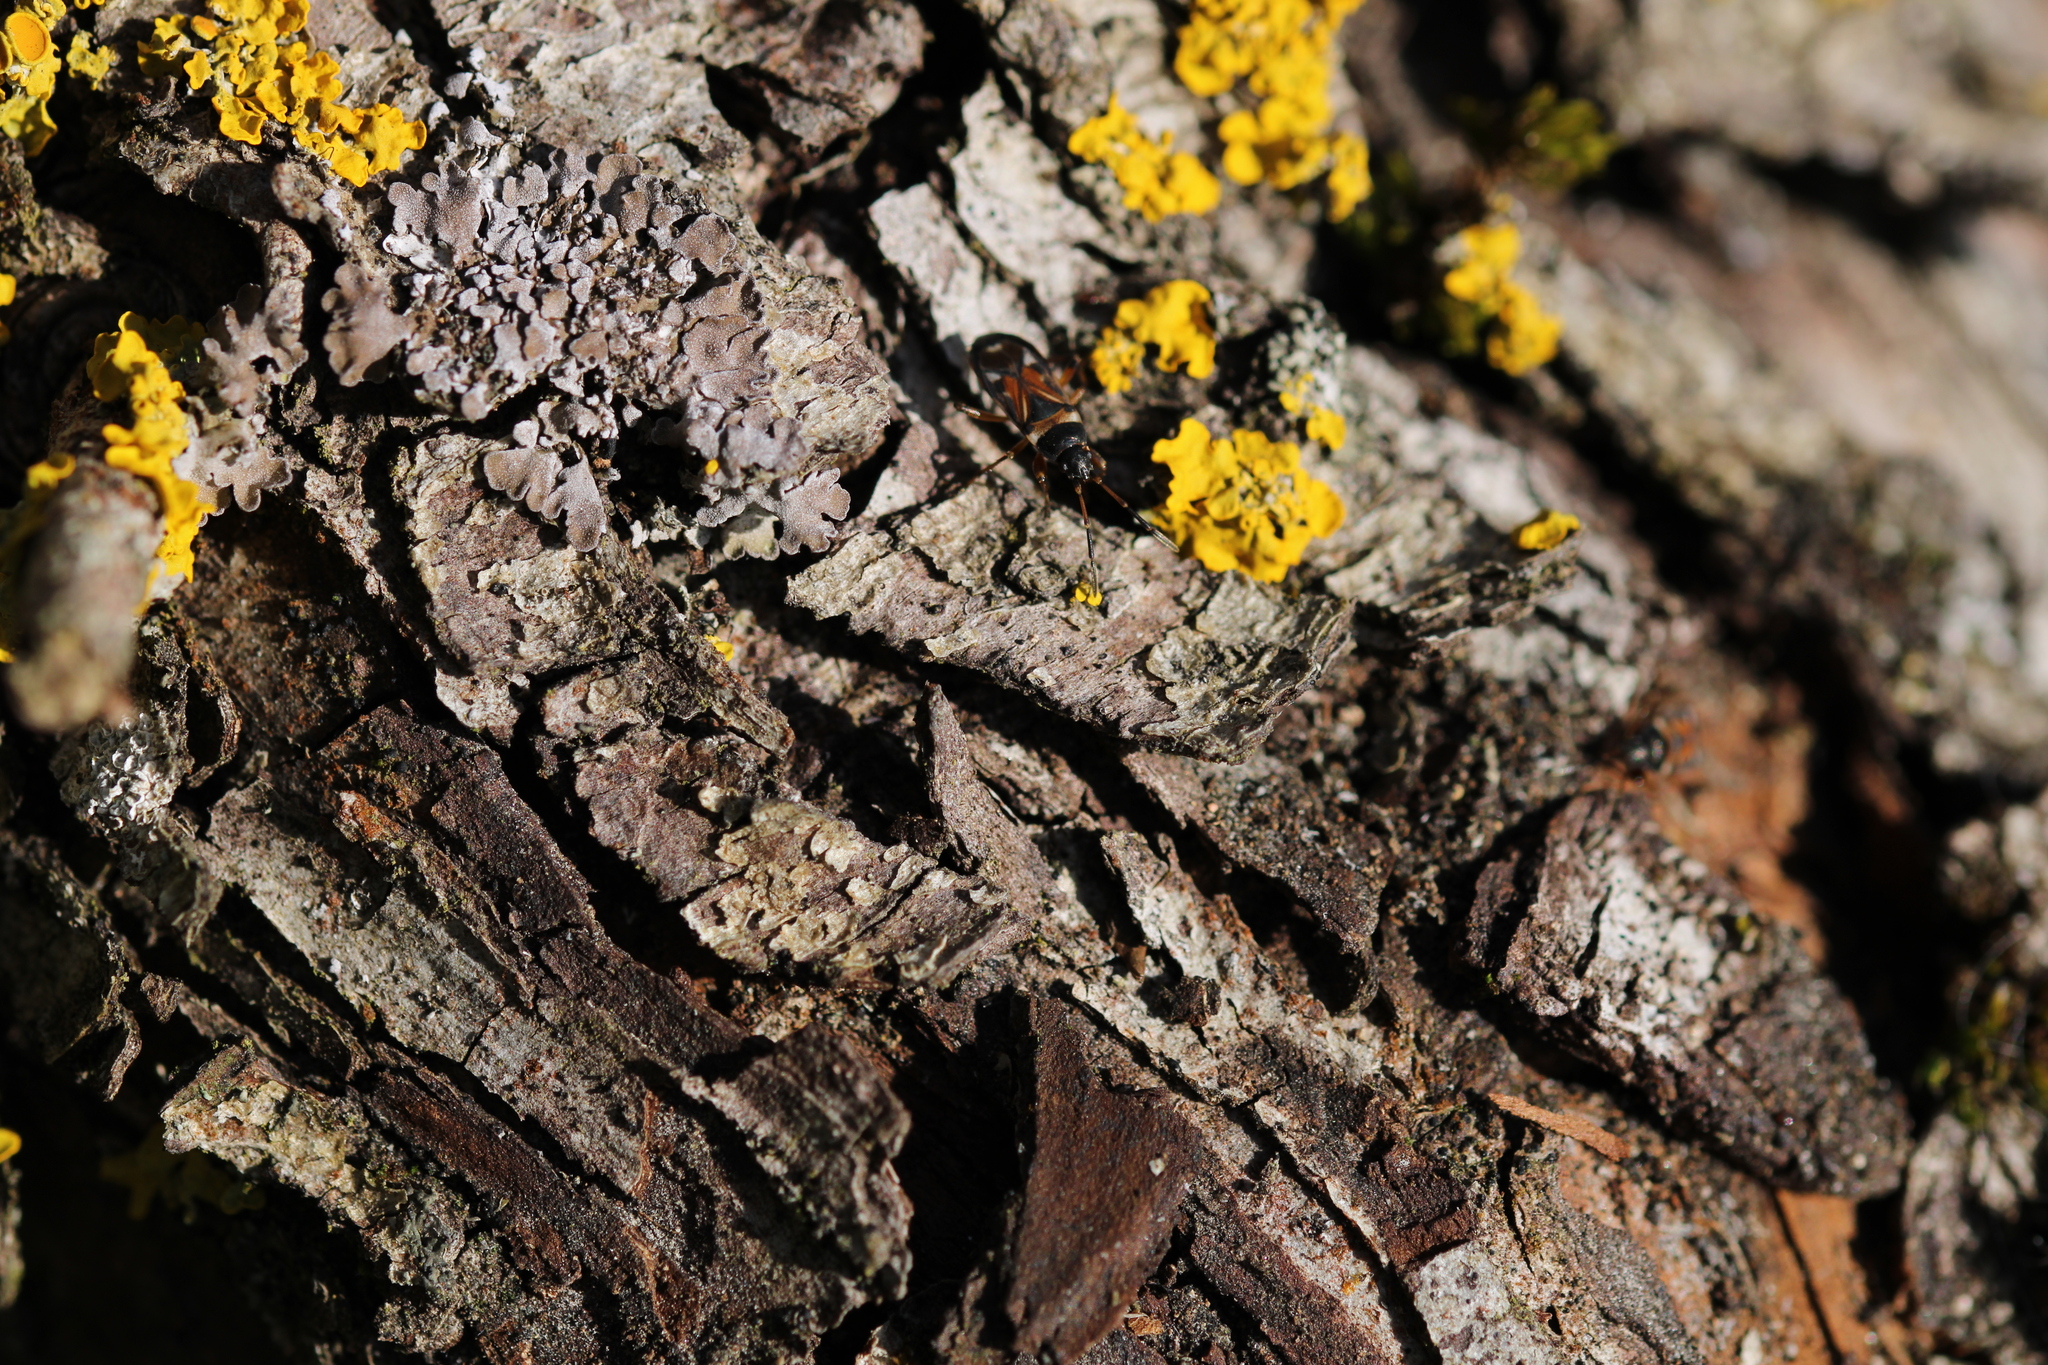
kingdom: Animalia
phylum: Arthropoda
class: Insecta
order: Hemiptera
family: Rhyparochromidae
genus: Raglius
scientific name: Raglius alboacuminatus
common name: Dirt-colored seed bug
